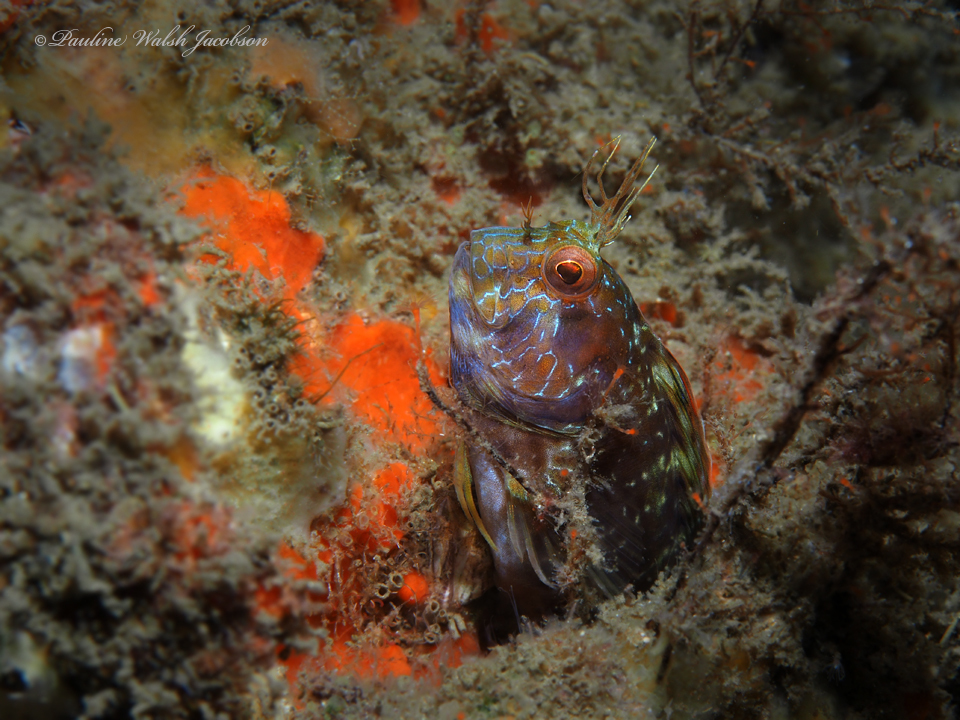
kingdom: Animalia
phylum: Chordata
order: Perciformes
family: Blenniidae
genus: Parablennius
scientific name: Parablennius marmoreus
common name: Seaweed blenny
